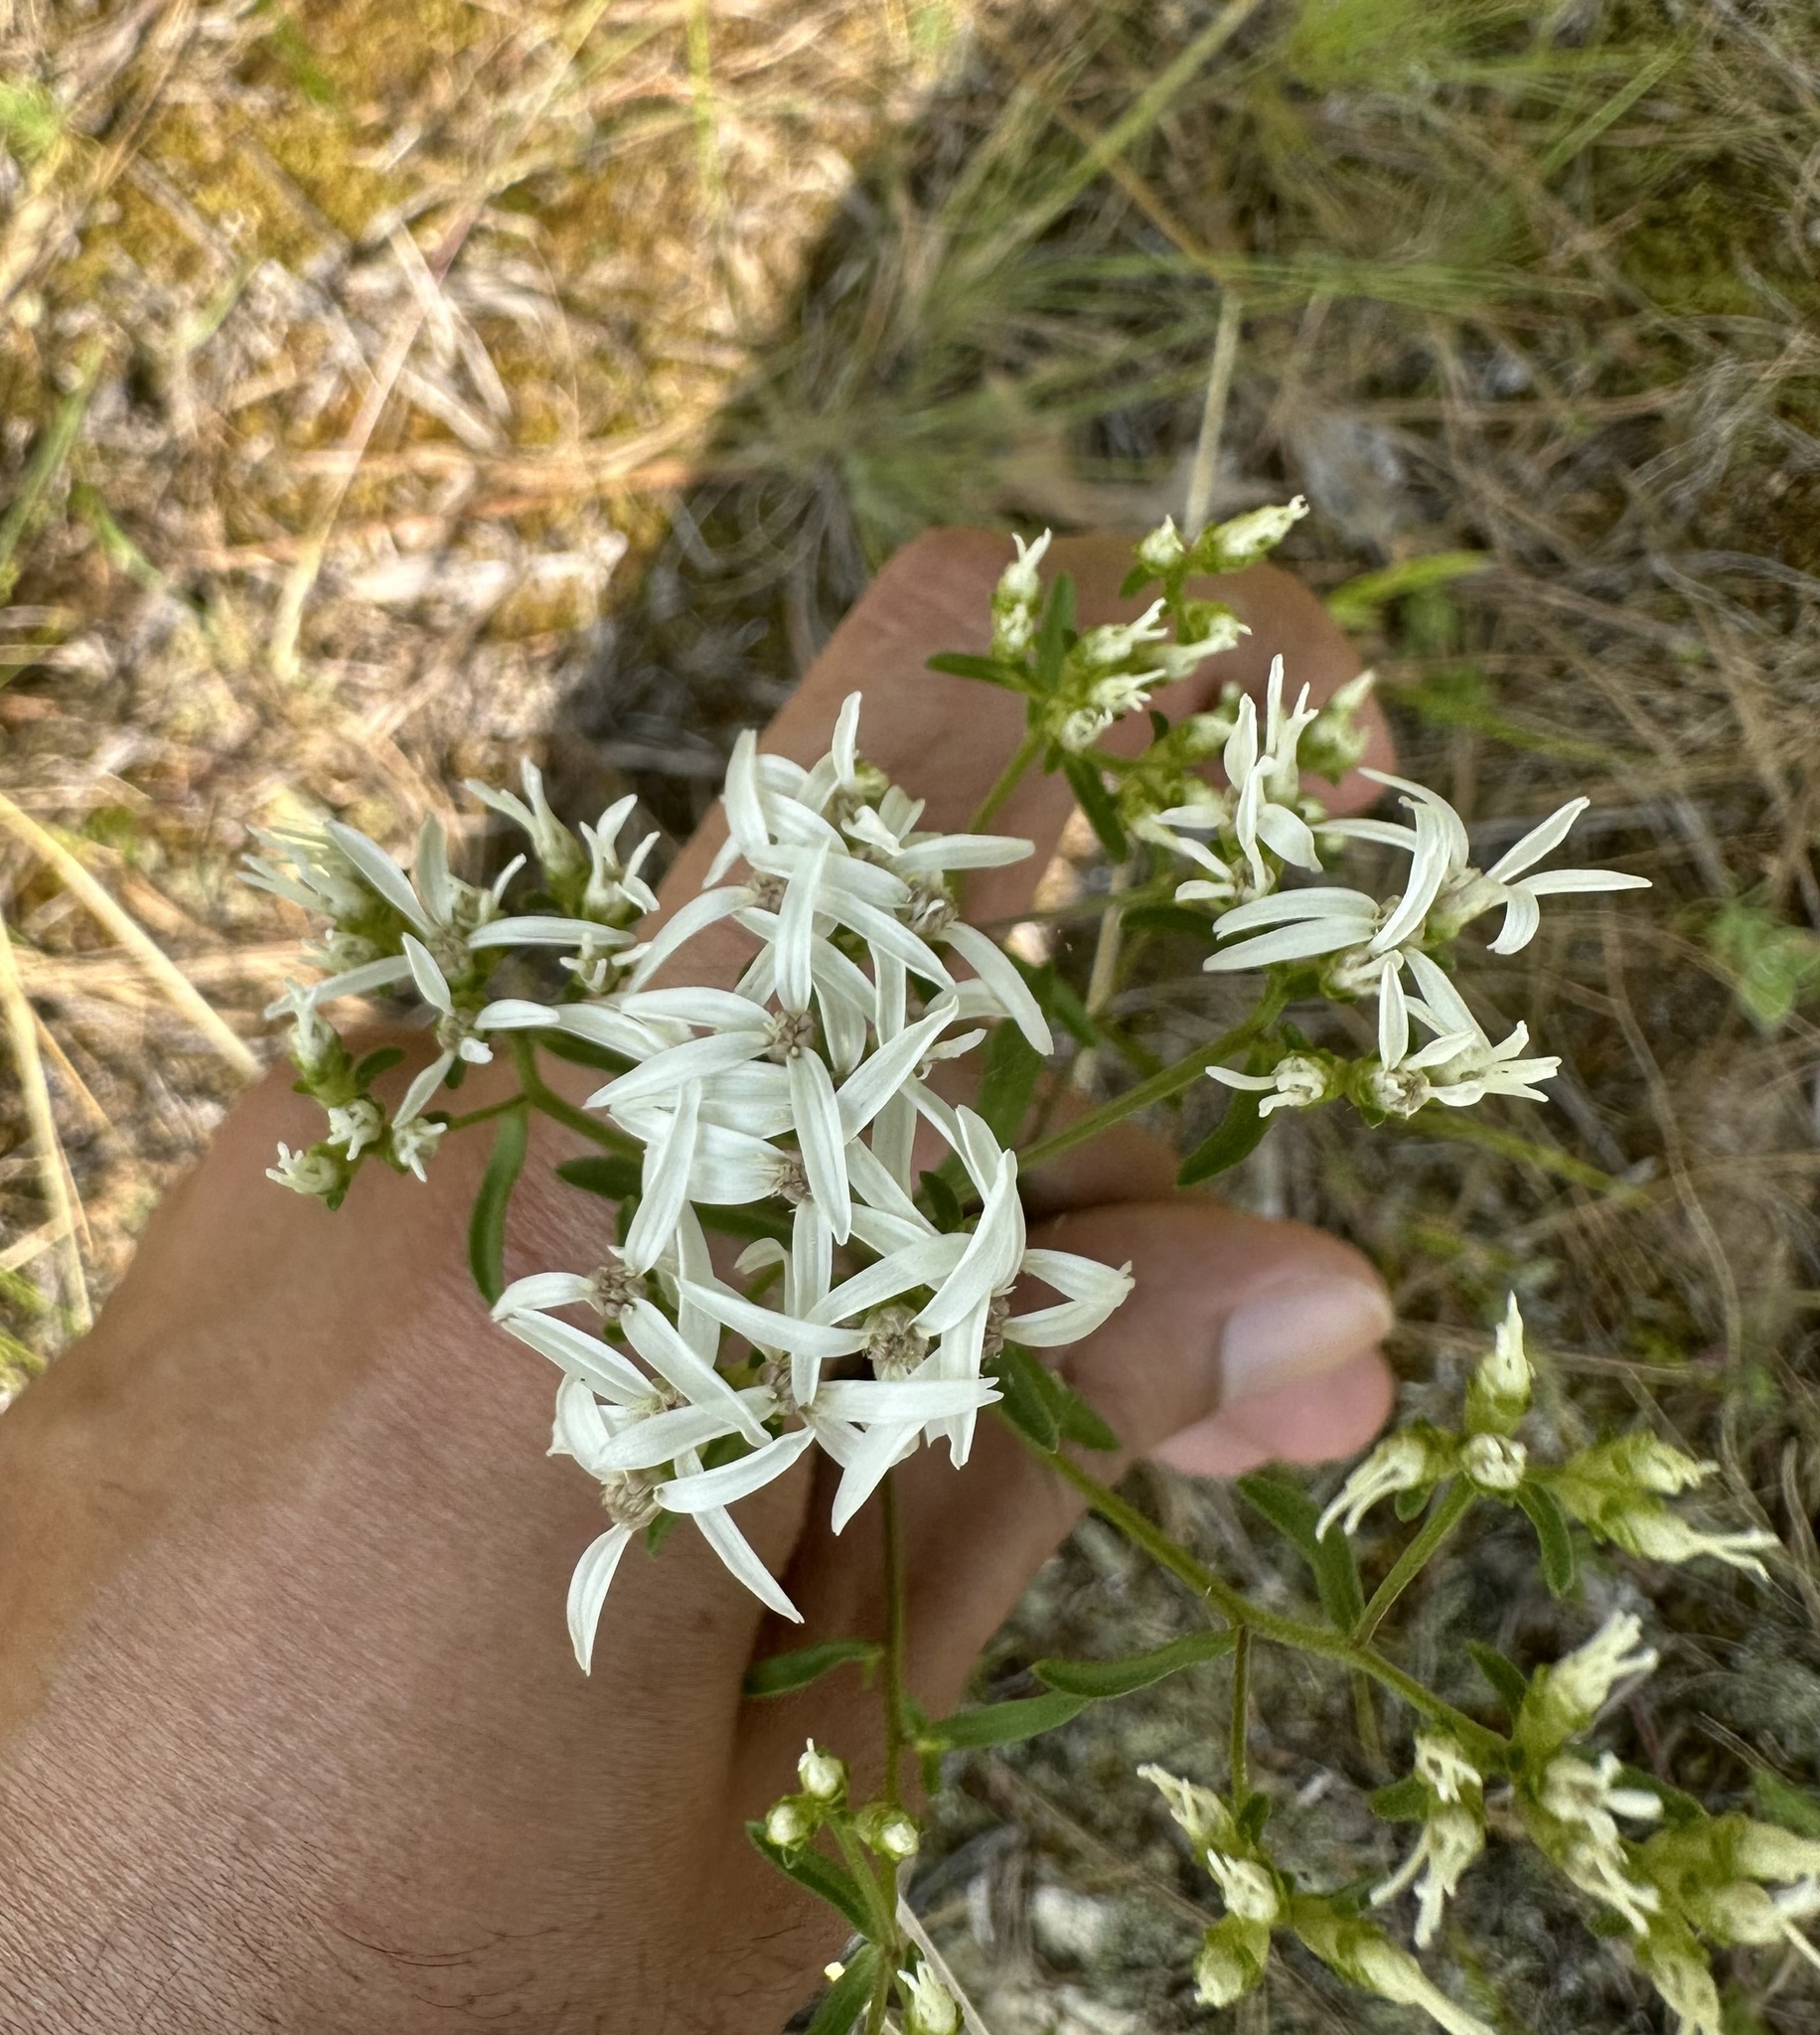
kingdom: Plantae
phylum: Tracheophyta
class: Magnoliopsida
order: Asterales
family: Asteraceae
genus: Sericocarpus
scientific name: Sericocarpus linifolius
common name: Narrow-leaf aster
